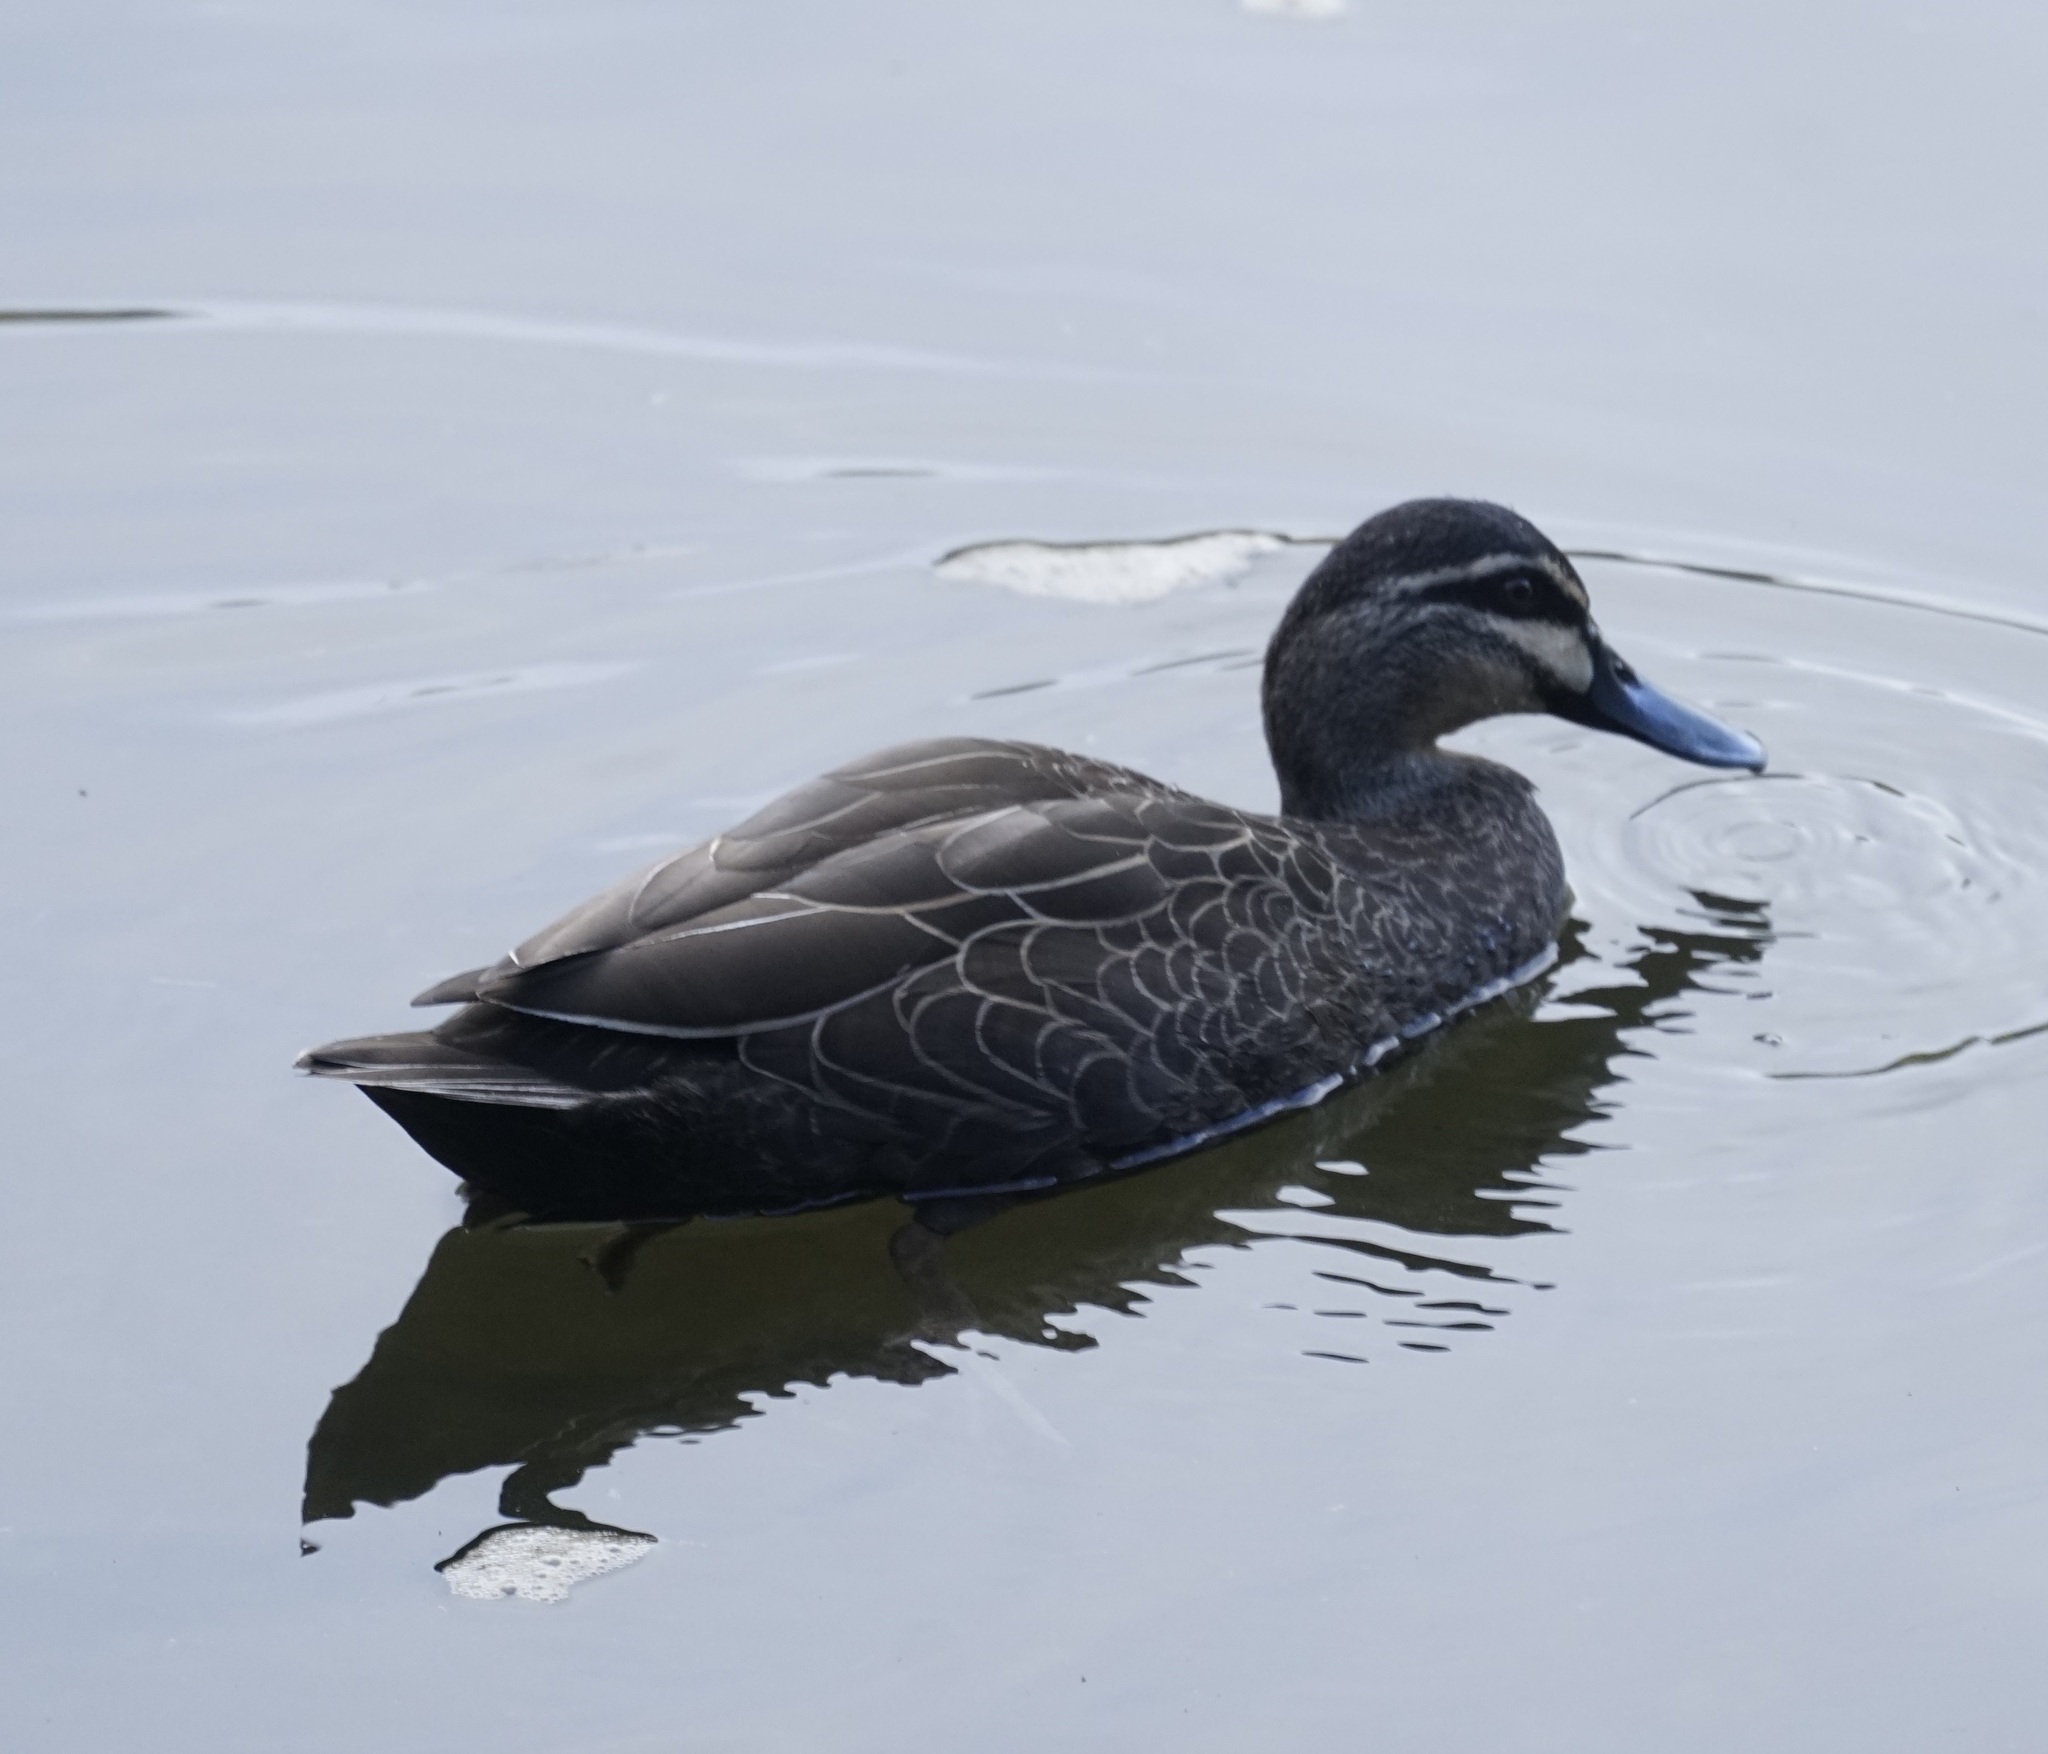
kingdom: Animalia
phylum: Chordata
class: Aves
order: Anseriformes
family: Anatidae
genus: Anas
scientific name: Anas superciliosa
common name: Pacific black duck
